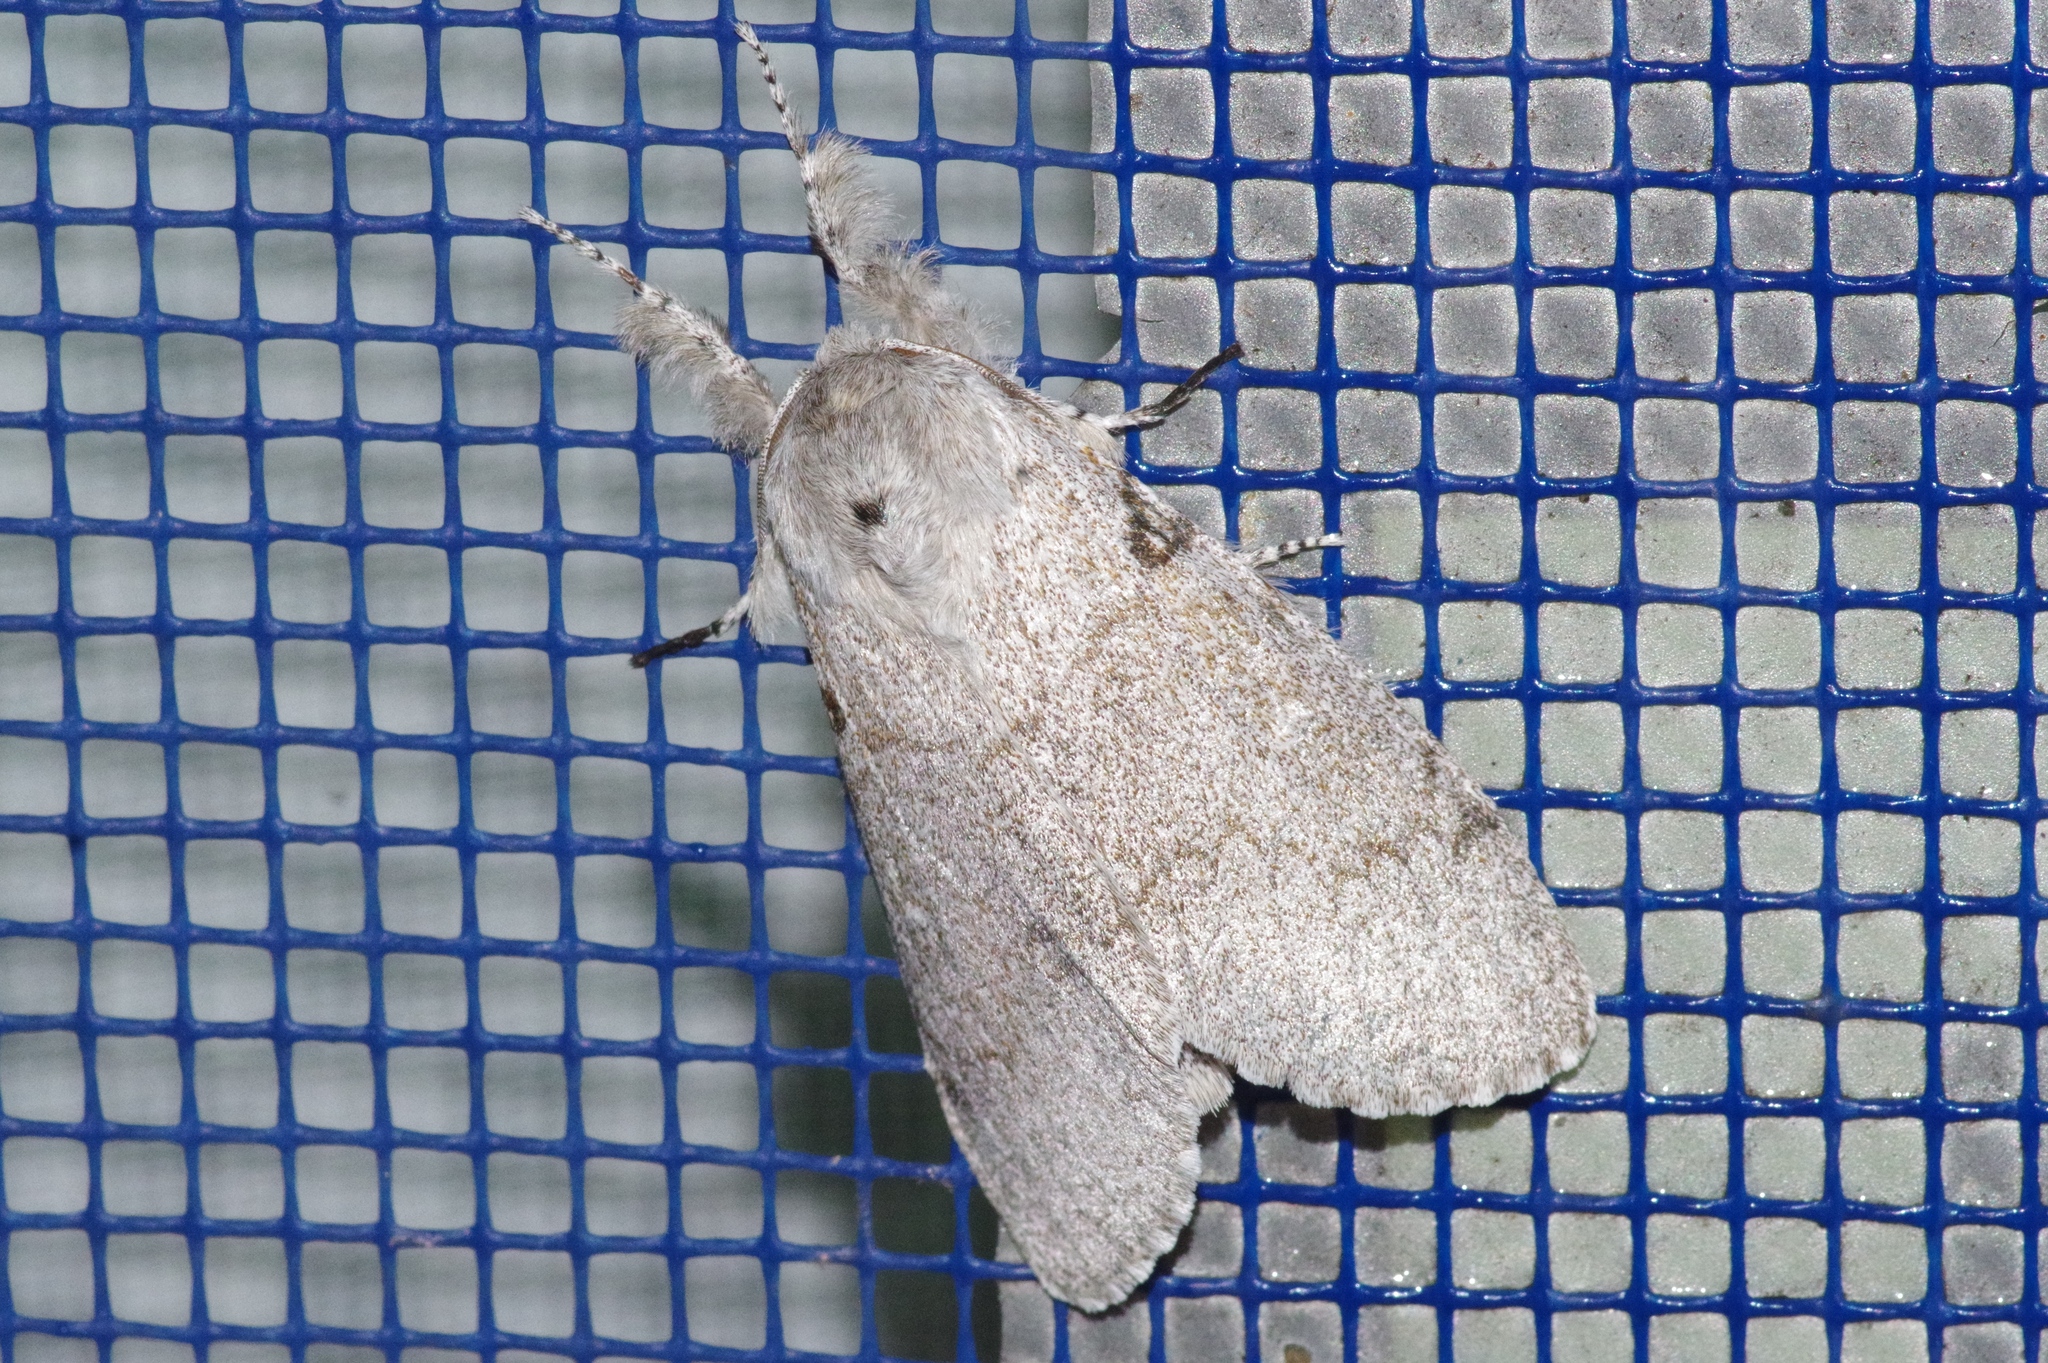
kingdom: Animalia
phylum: Arthropoda
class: Insecta
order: Lepidoptera
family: Erebidae
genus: Calliteara
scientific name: Calliteara lunulata
